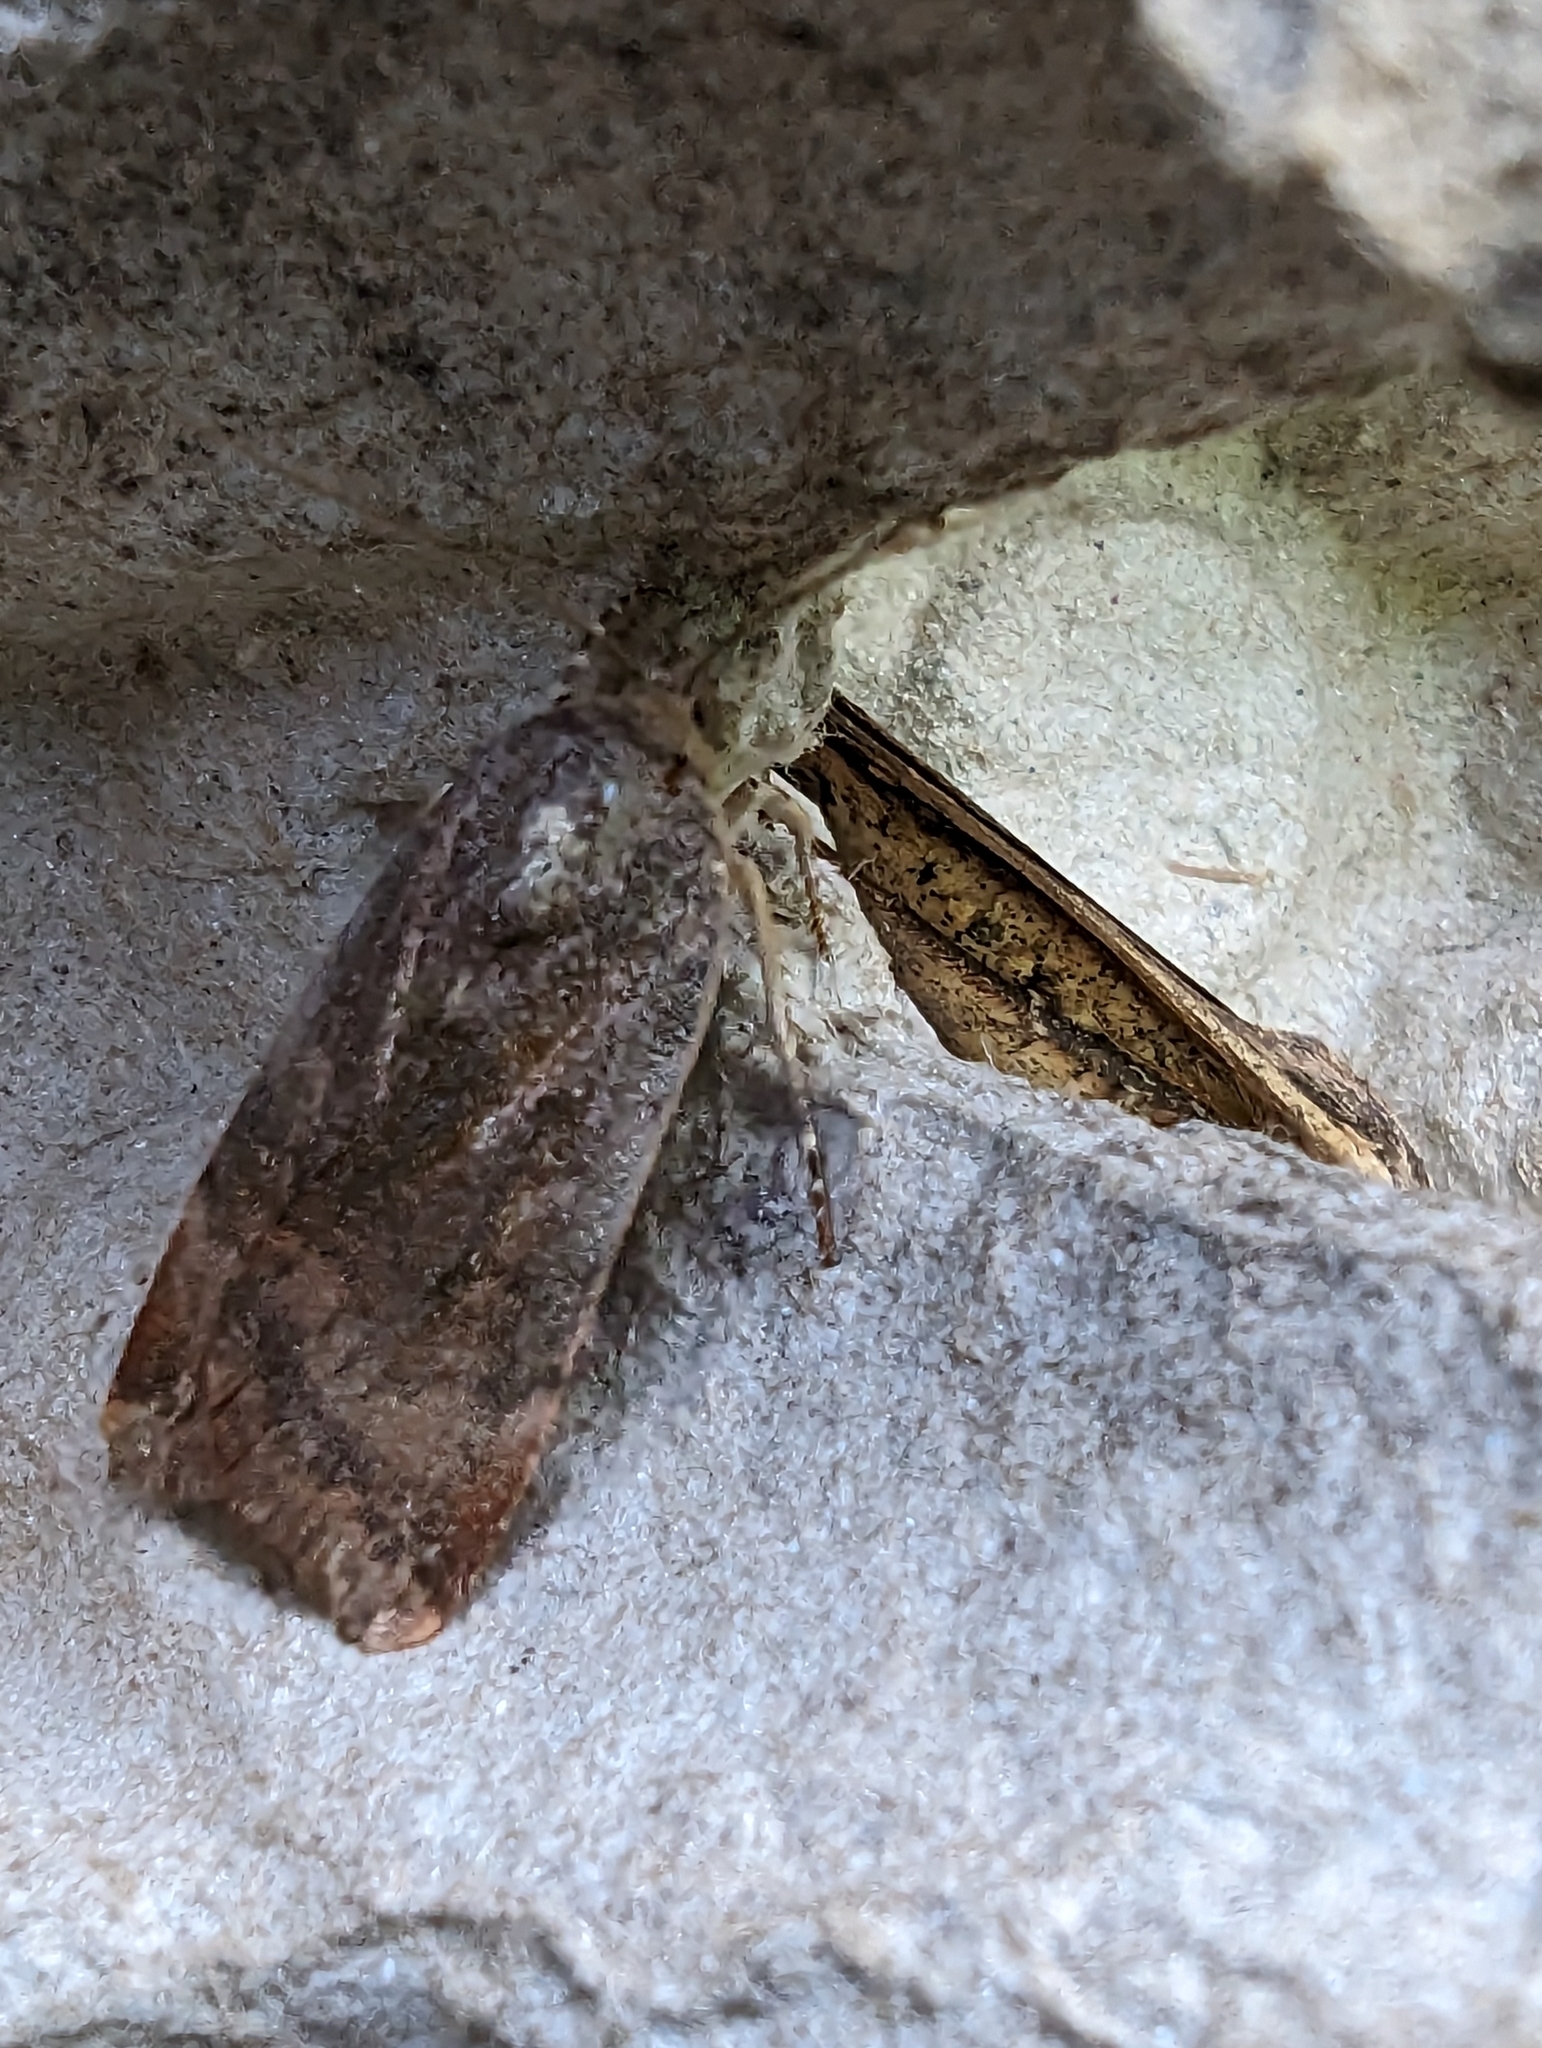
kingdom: Animalia
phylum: Arthropoda
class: Insecta
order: Lepidoptera
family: Noctuidae
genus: Noctua
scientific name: Noctua
